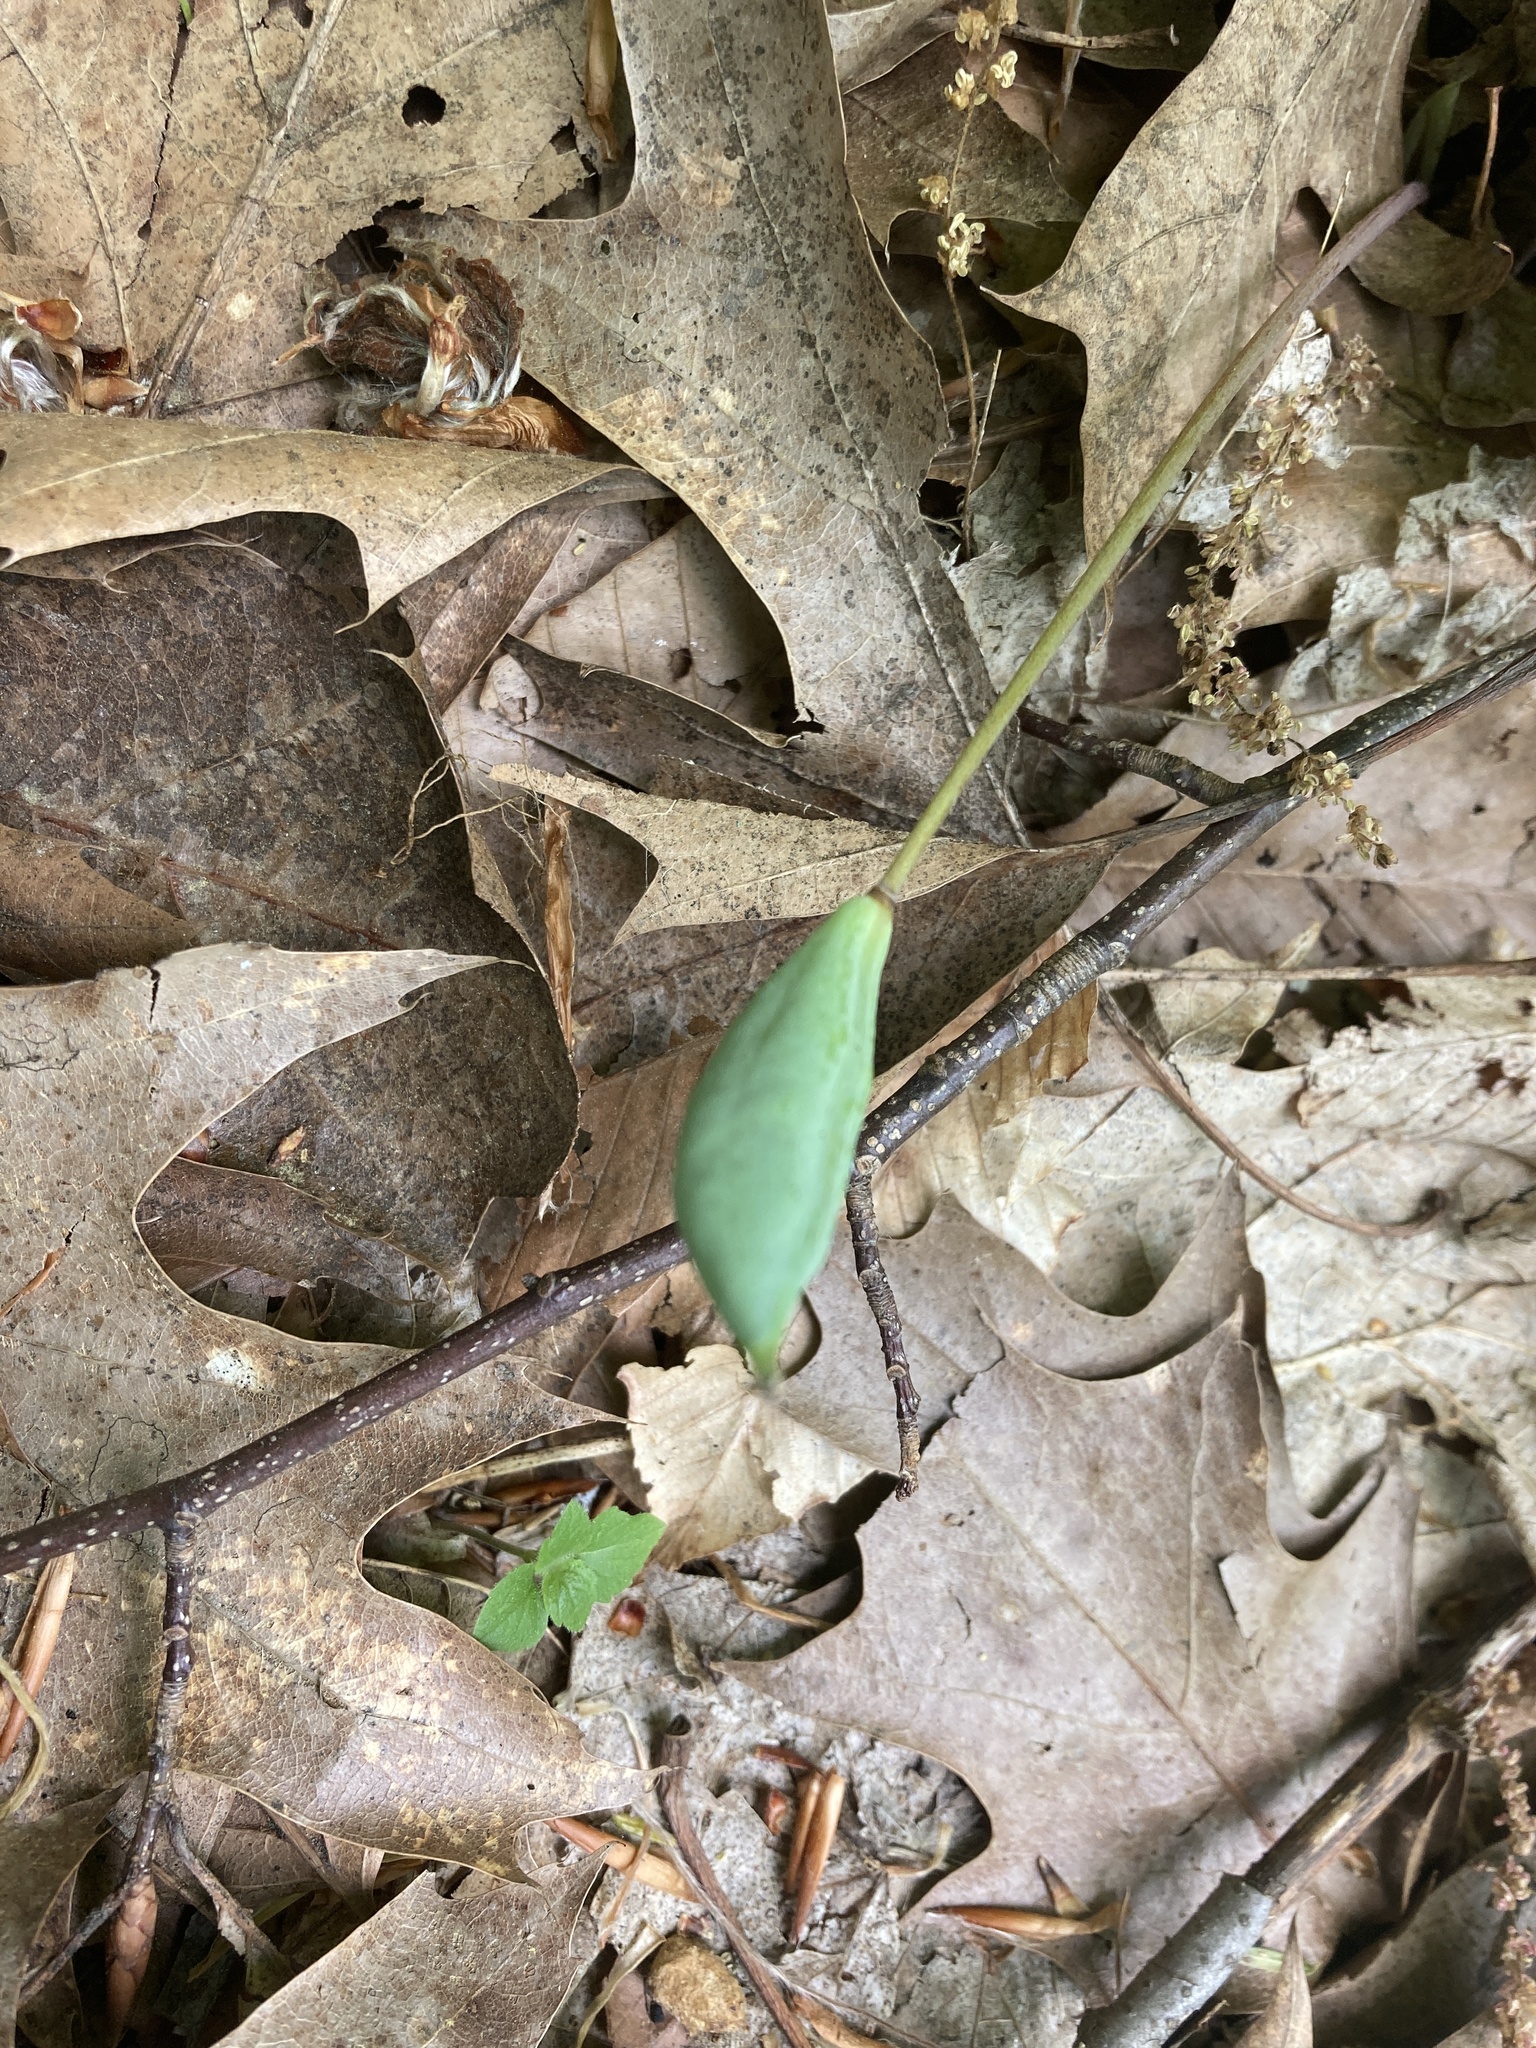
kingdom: Plantae
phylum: Tracheophyta
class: Magnoliopsida
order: Ranunculales
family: Papaveraceae
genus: Sanguinaria
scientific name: Sanguinaria canadensis
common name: Bloodroot
